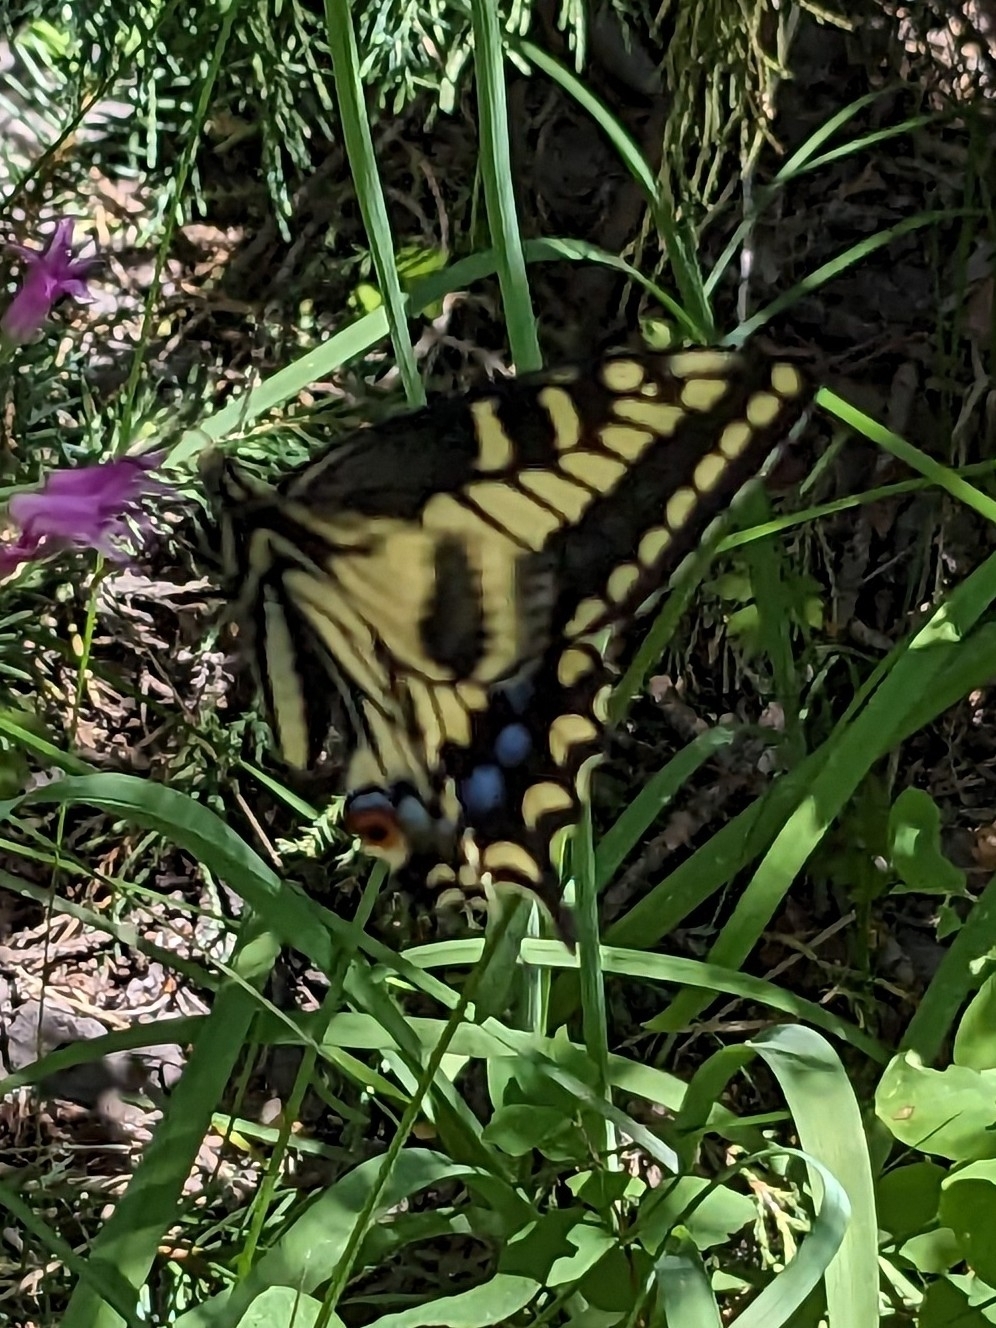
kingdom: Animalia
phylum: Arthropoda
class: Insecta
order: Lepidoptera
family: Papilionidae
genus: Papilio
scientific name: Papilio zelicaon
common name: Anise swallowtail
